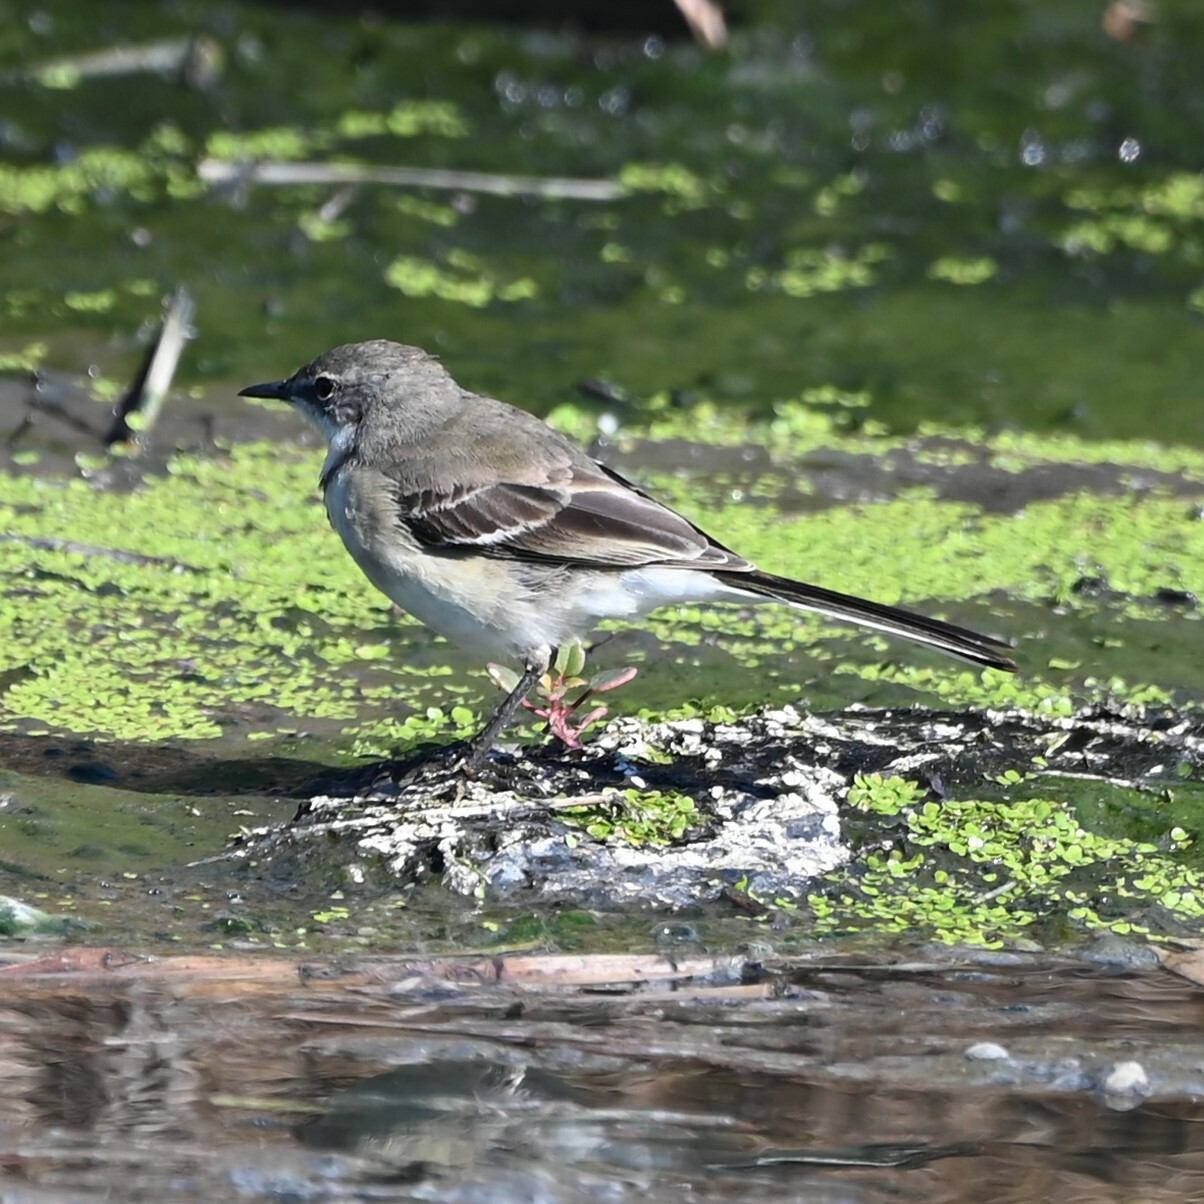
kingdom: Animalia
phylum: Chordata
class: Aves
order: Passeriformes
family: Motacillidae
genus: Motacilla
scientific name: Motacilla capensis
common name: Cape wagtail
